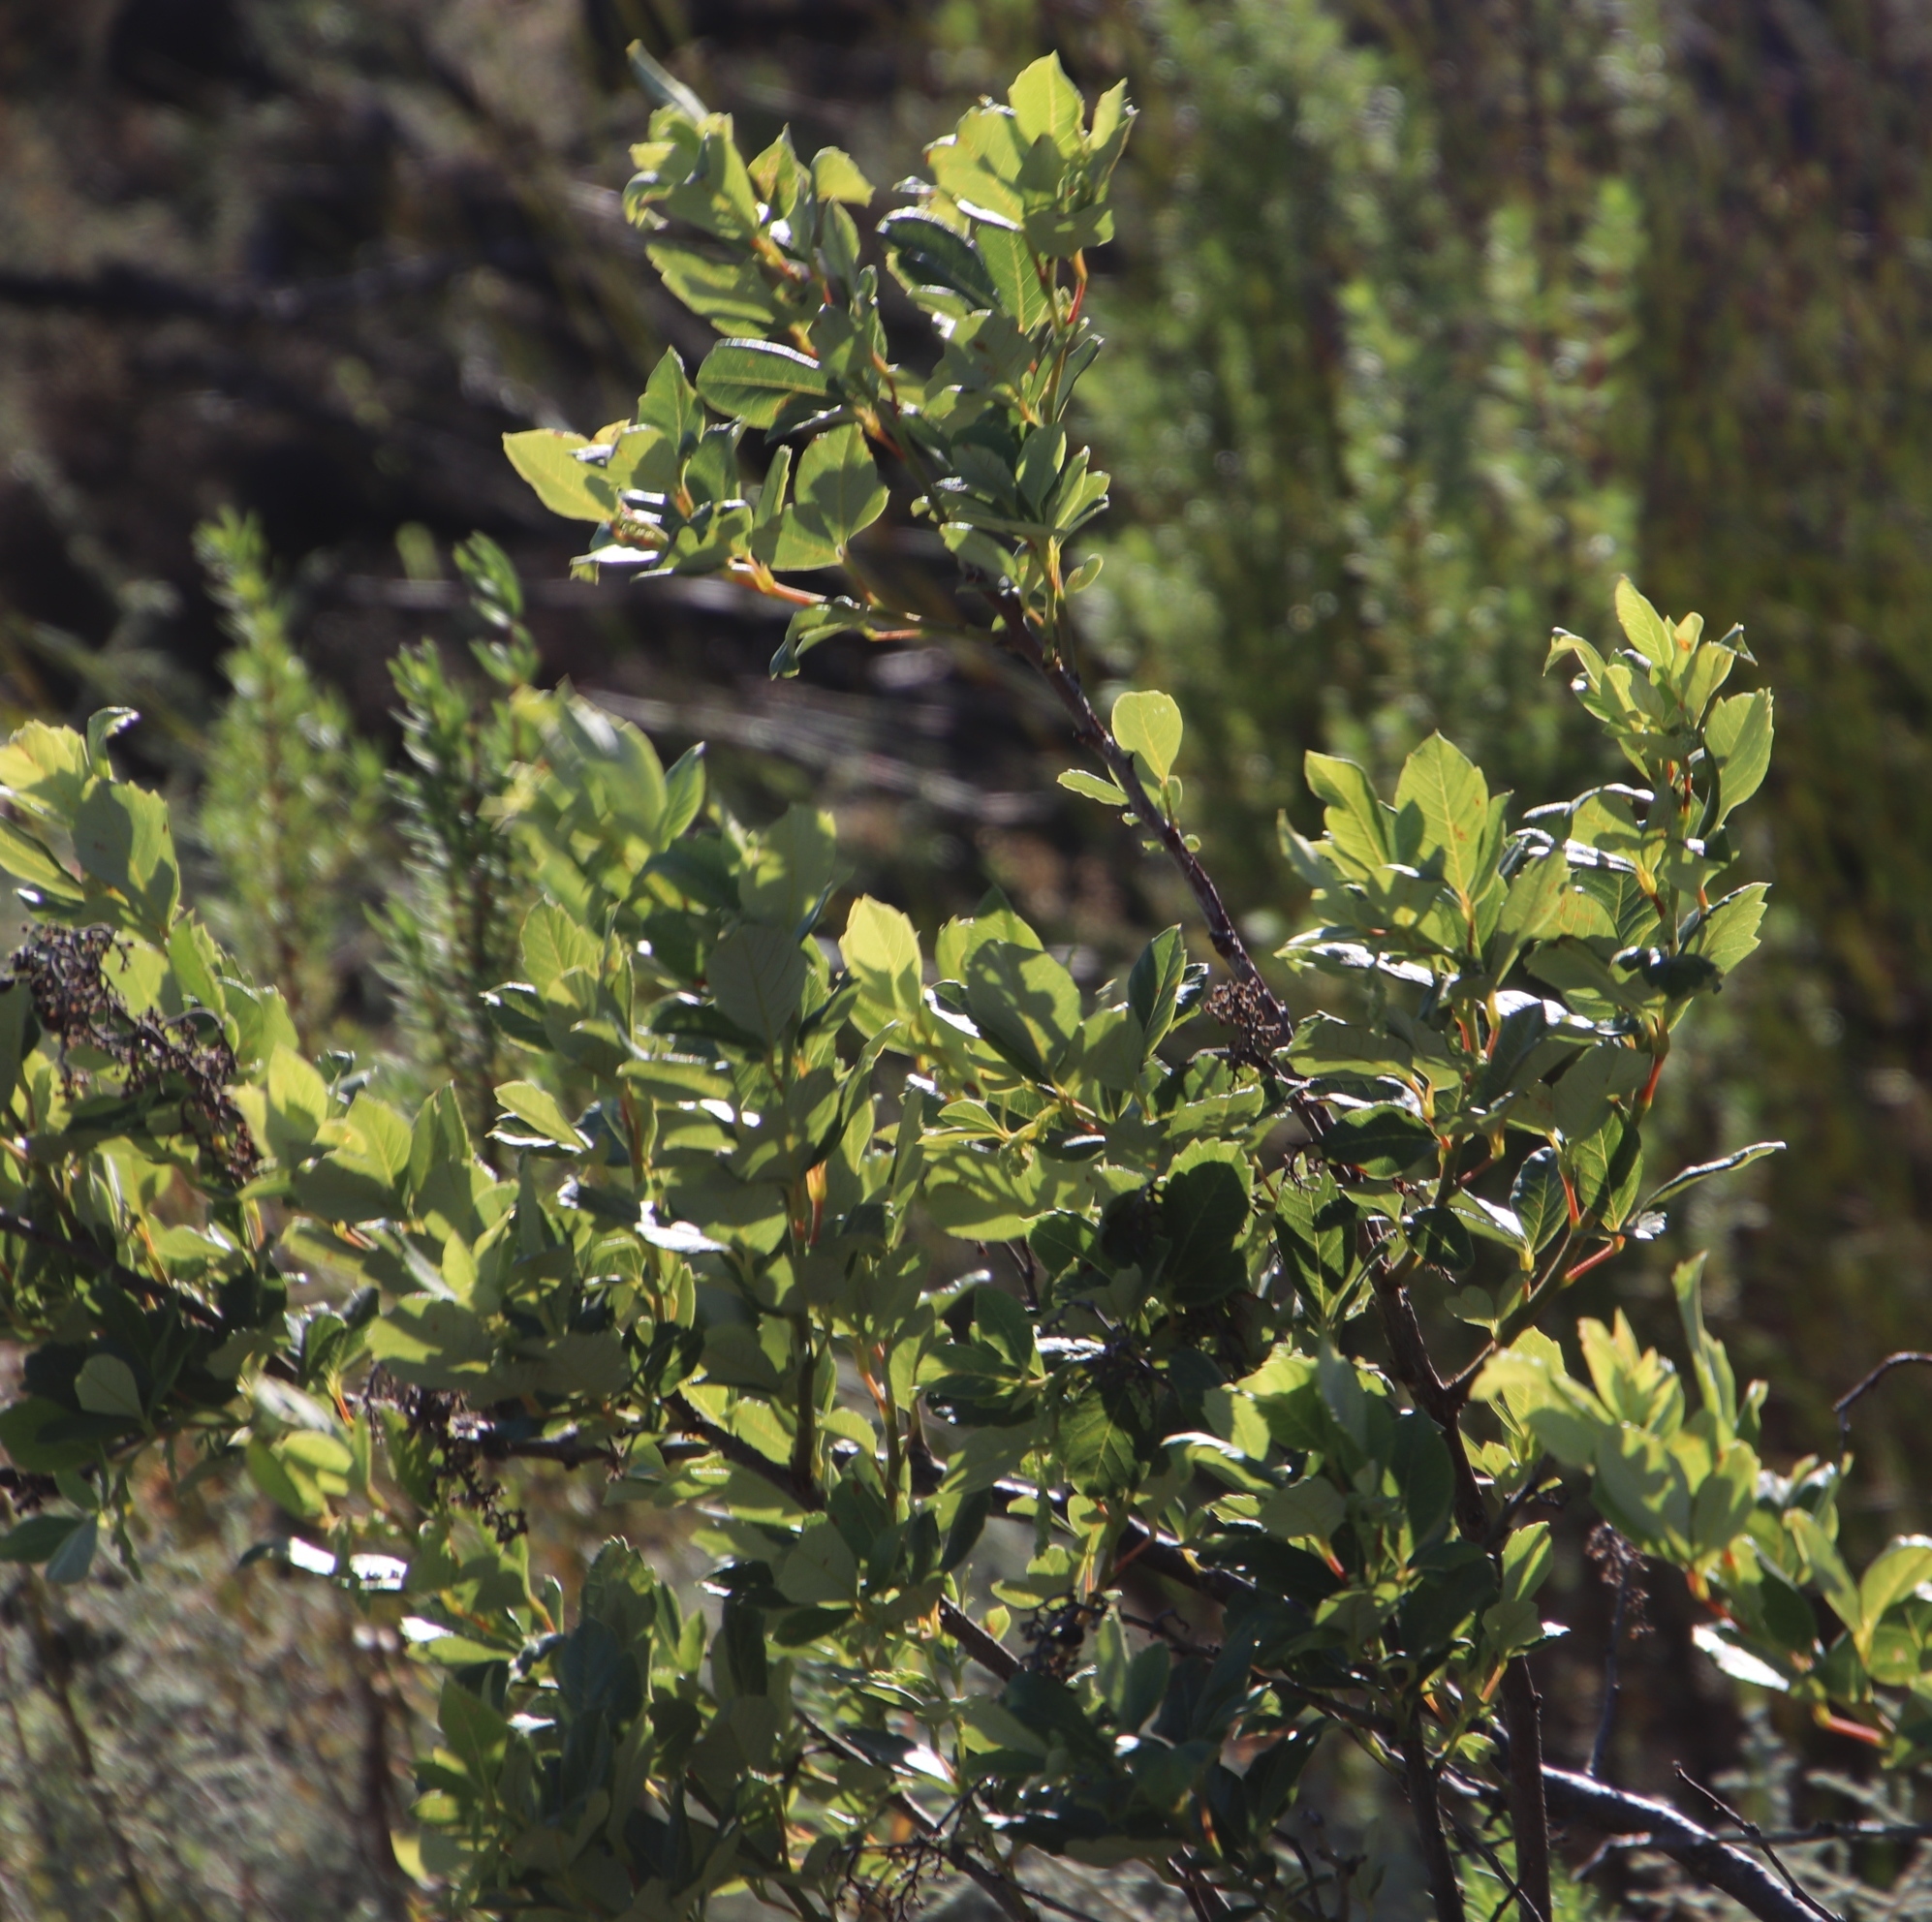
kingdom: Plantae
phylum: Tracheophyta
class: Magnoliopsida
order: Sapindales
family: Anacardiaceae
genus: Searsia
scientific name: Searsia tomentosa
